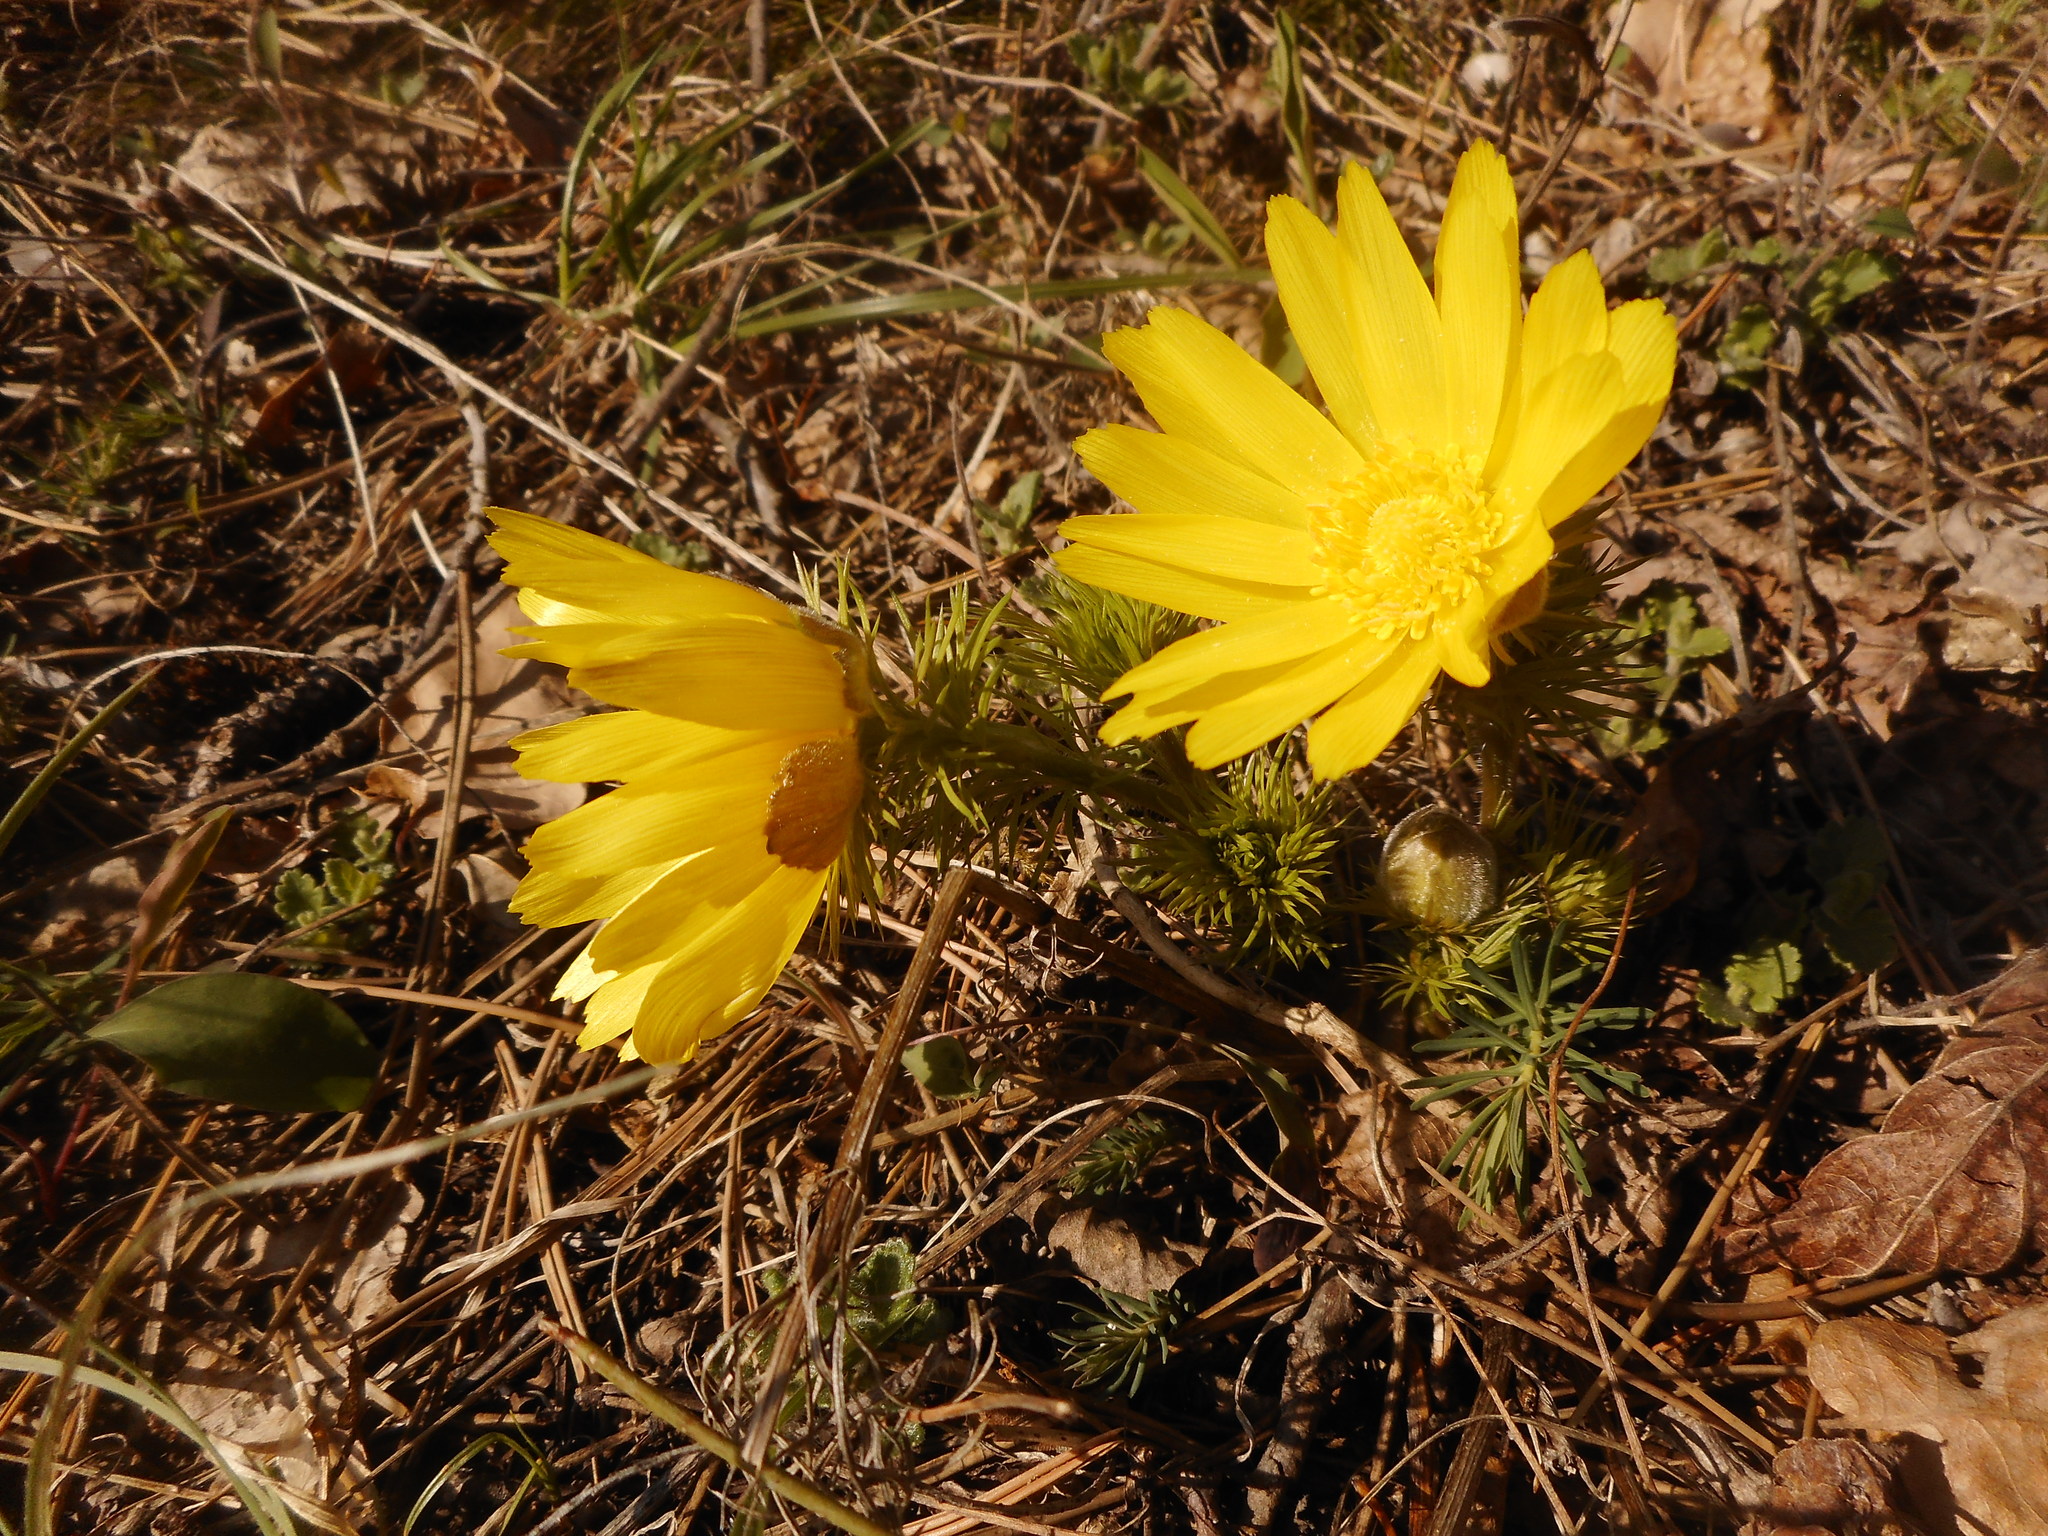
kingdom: Plantae
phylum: Tracheophyta
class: Magnoliopsida
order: Ranunculales
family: Ranunculaceae
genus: Adonis
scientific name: Adonis vernalis
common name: Yellow pheasants-eye
